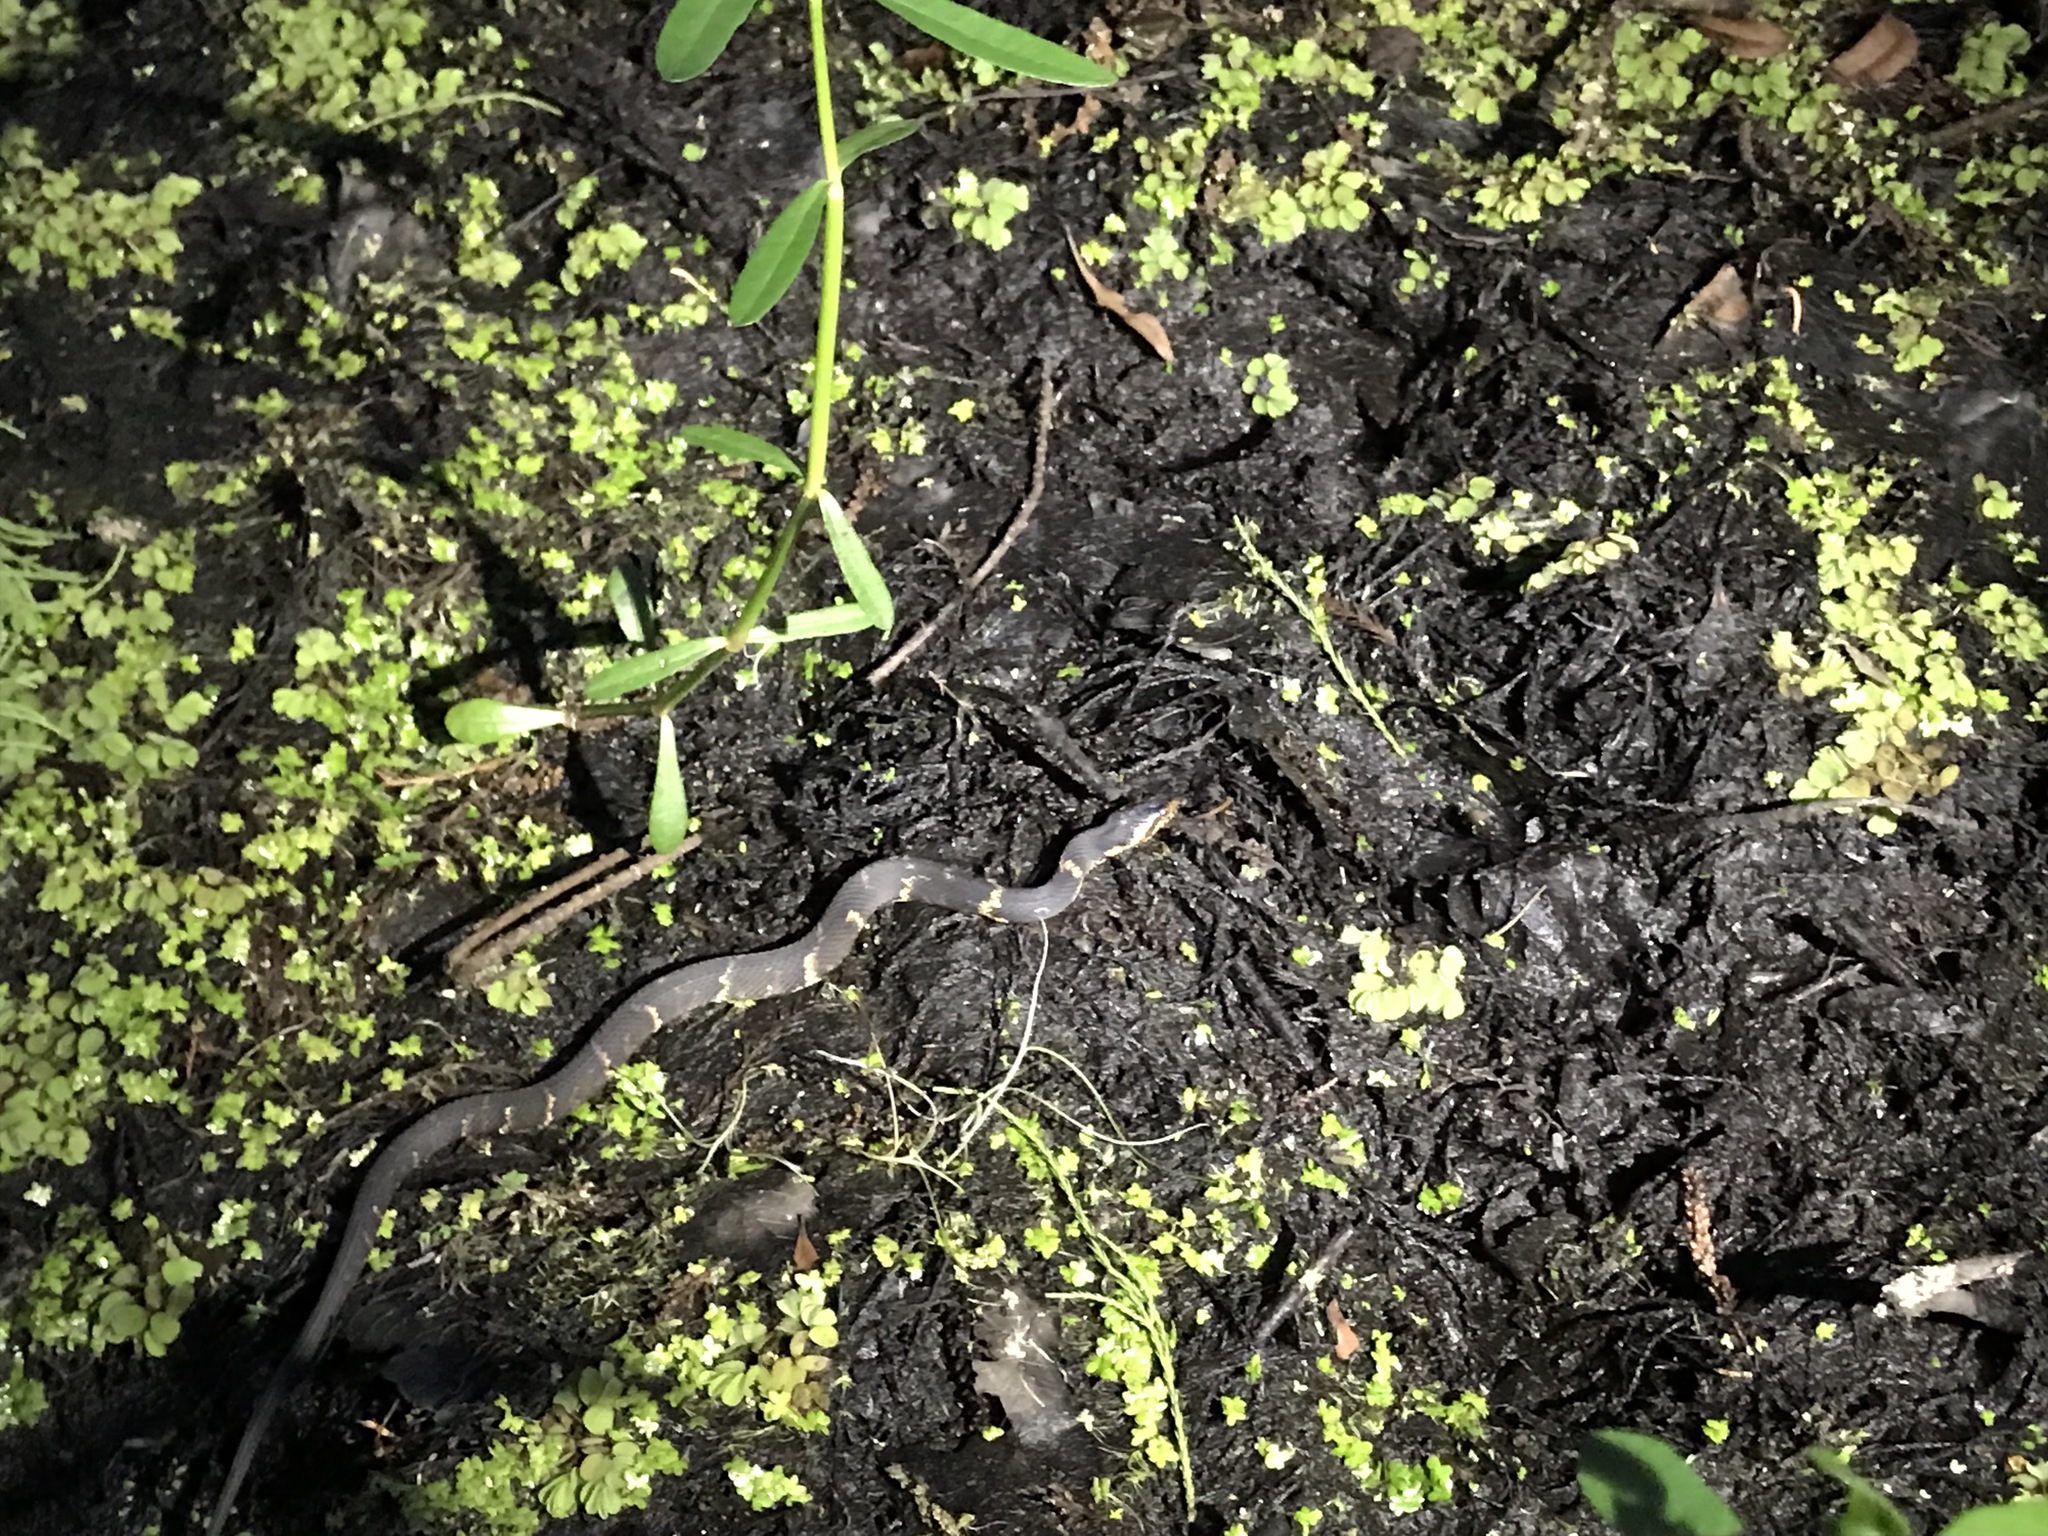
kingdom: Animalia
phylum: Chordata
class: Squamata
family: Colubridae
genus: Nerodia
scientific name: Nerodia fasciata
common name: Southern water snake
